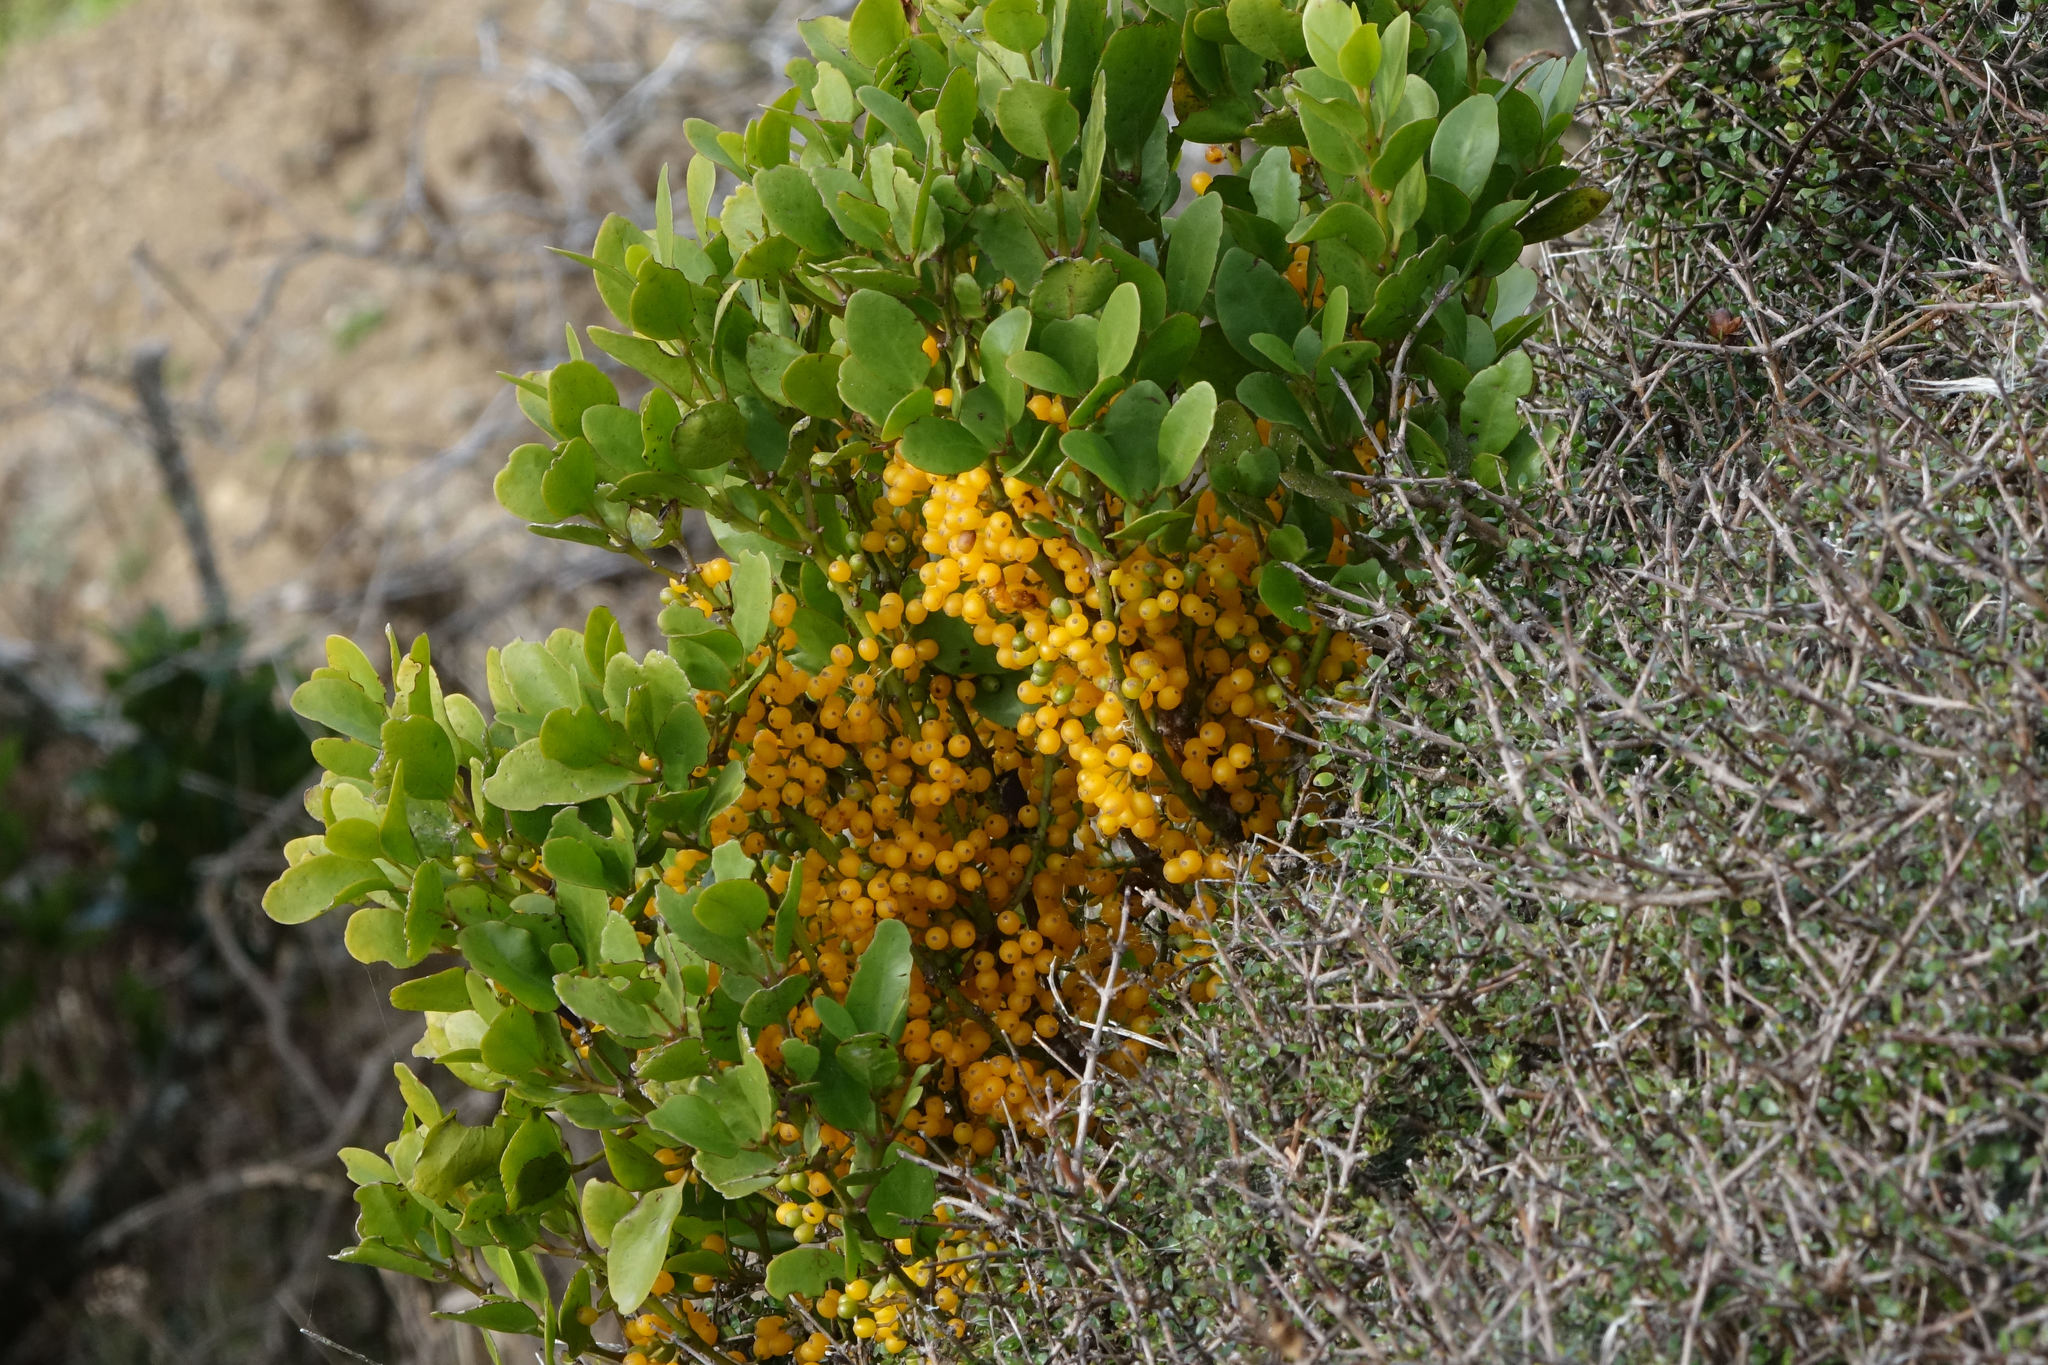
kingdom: Plantae
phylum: Tracheophyta
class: Magnoliopsida
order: Santalales
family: Loranthaceae
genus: Ileostylus
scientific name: Ileostylus micranthus
